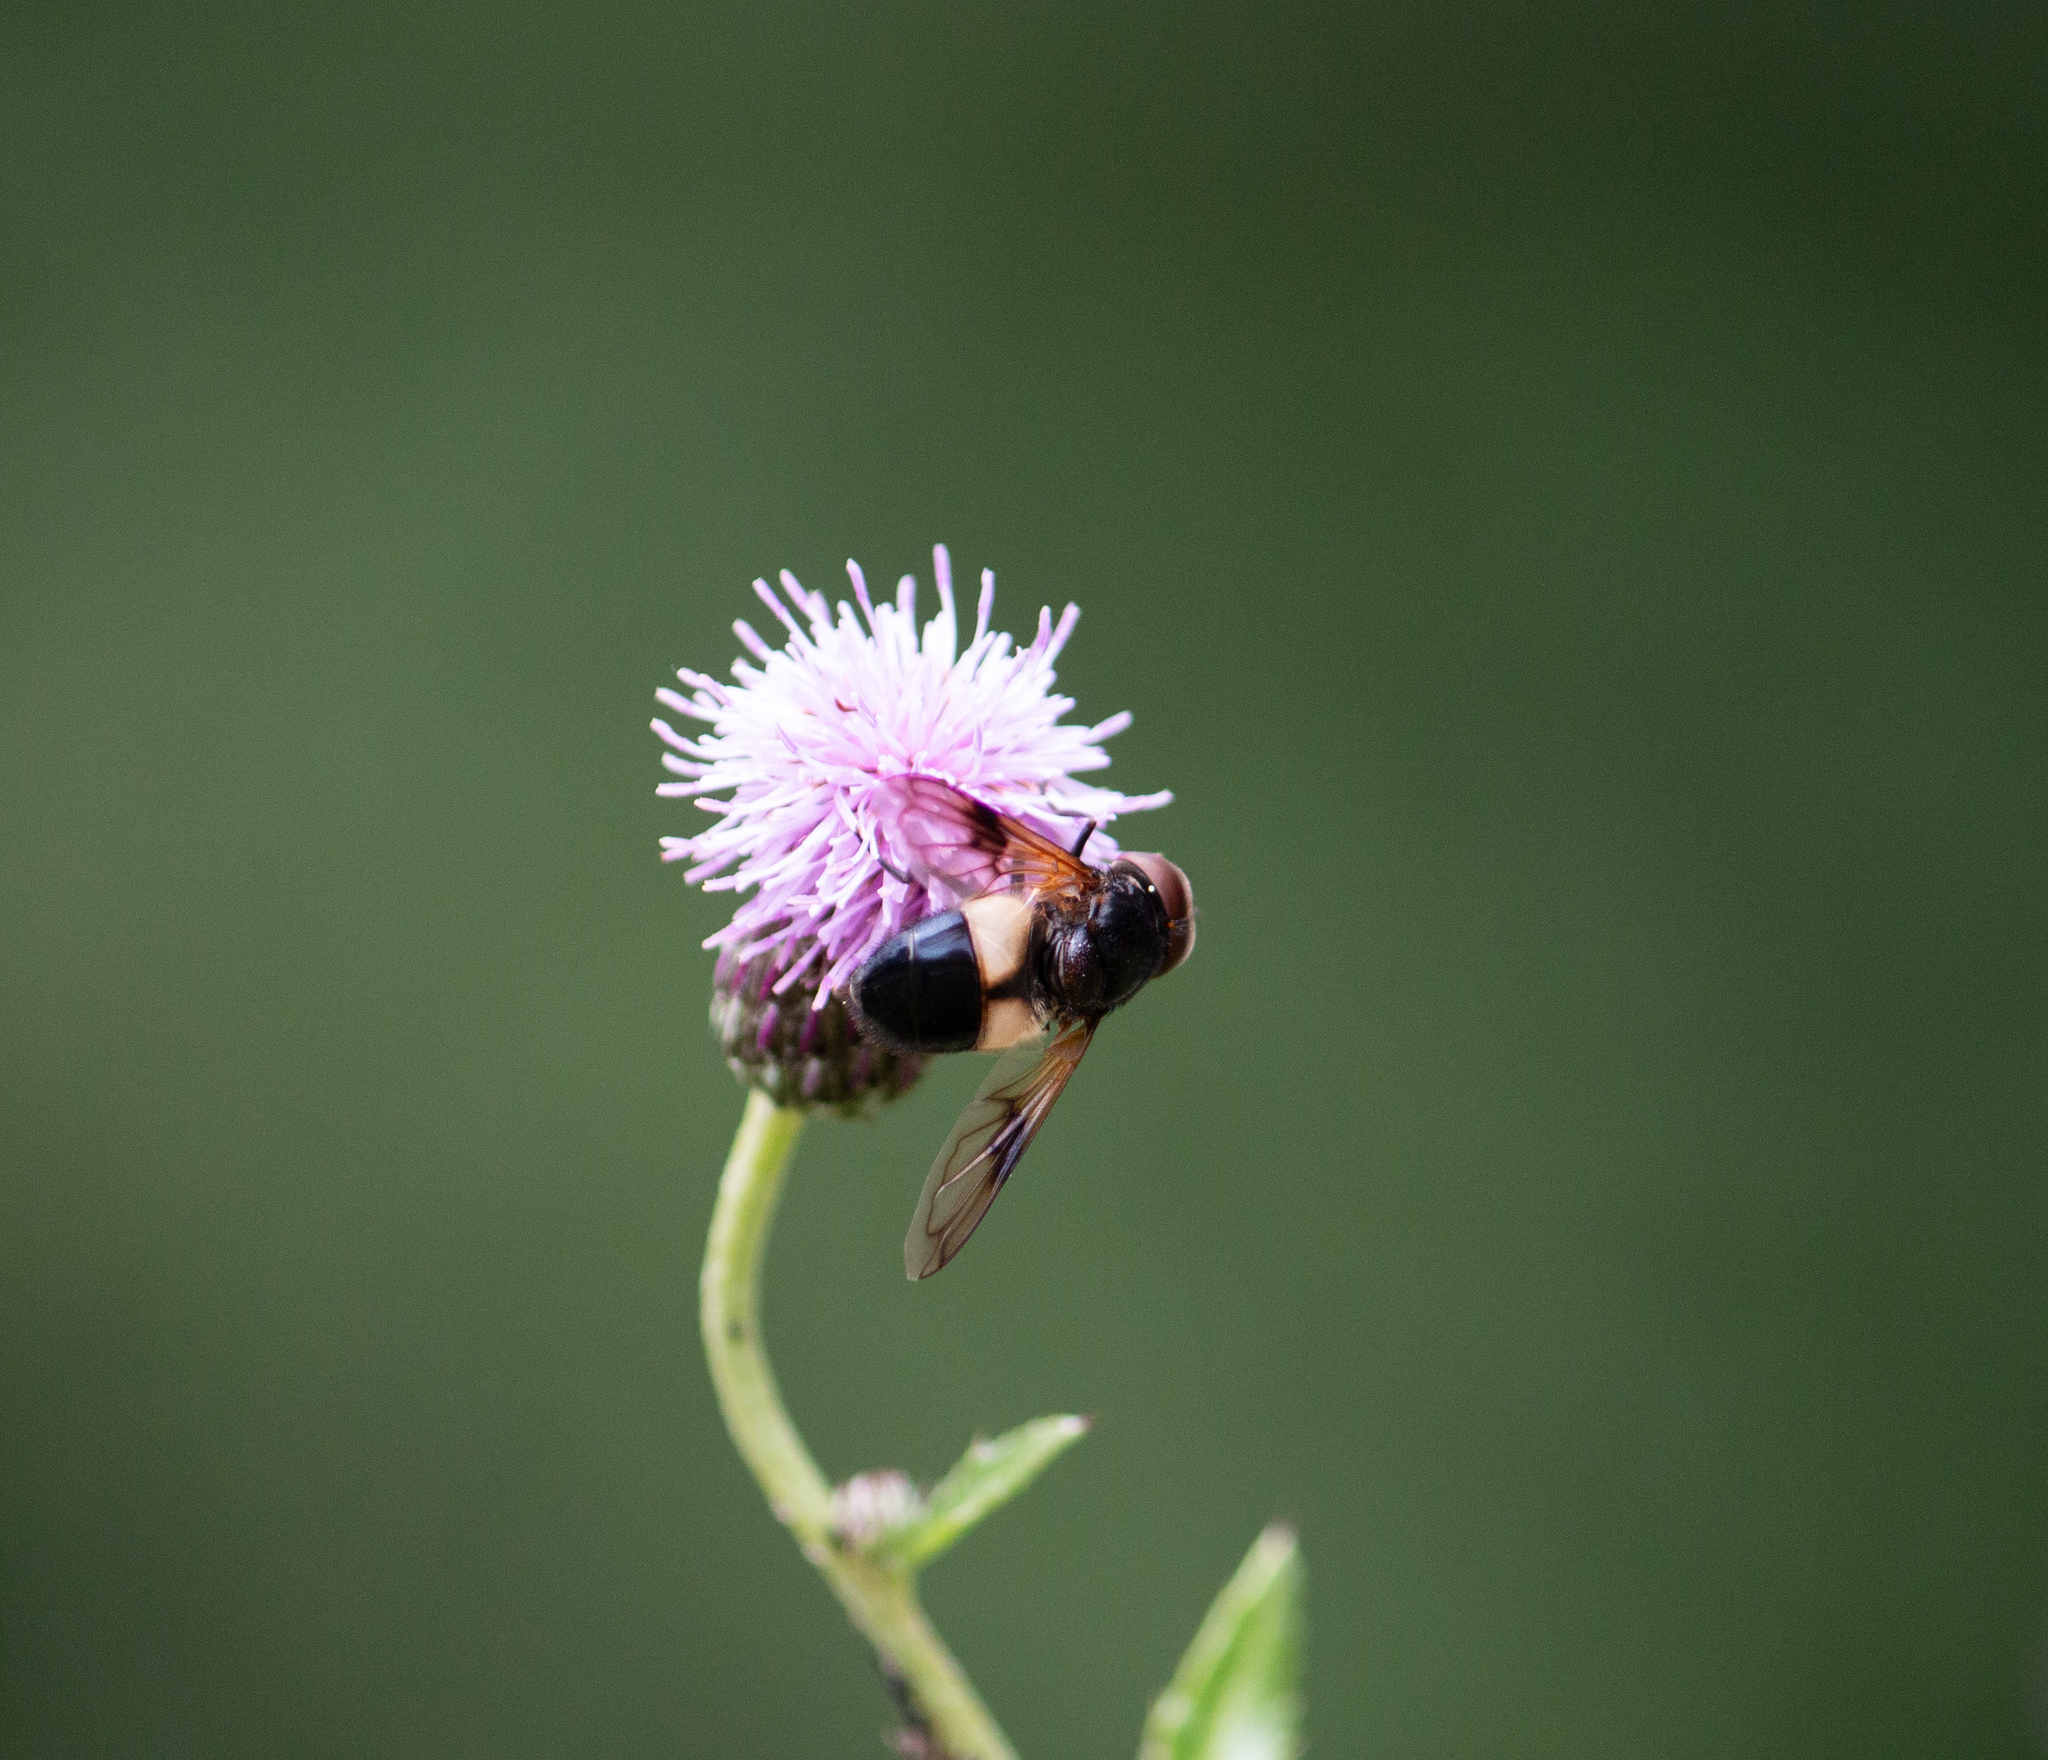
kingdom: Animalia
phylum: Arthropoda
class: Insecta
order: Diptera
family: Syrphidae
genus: Volucella
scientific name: Volucella pellucens
